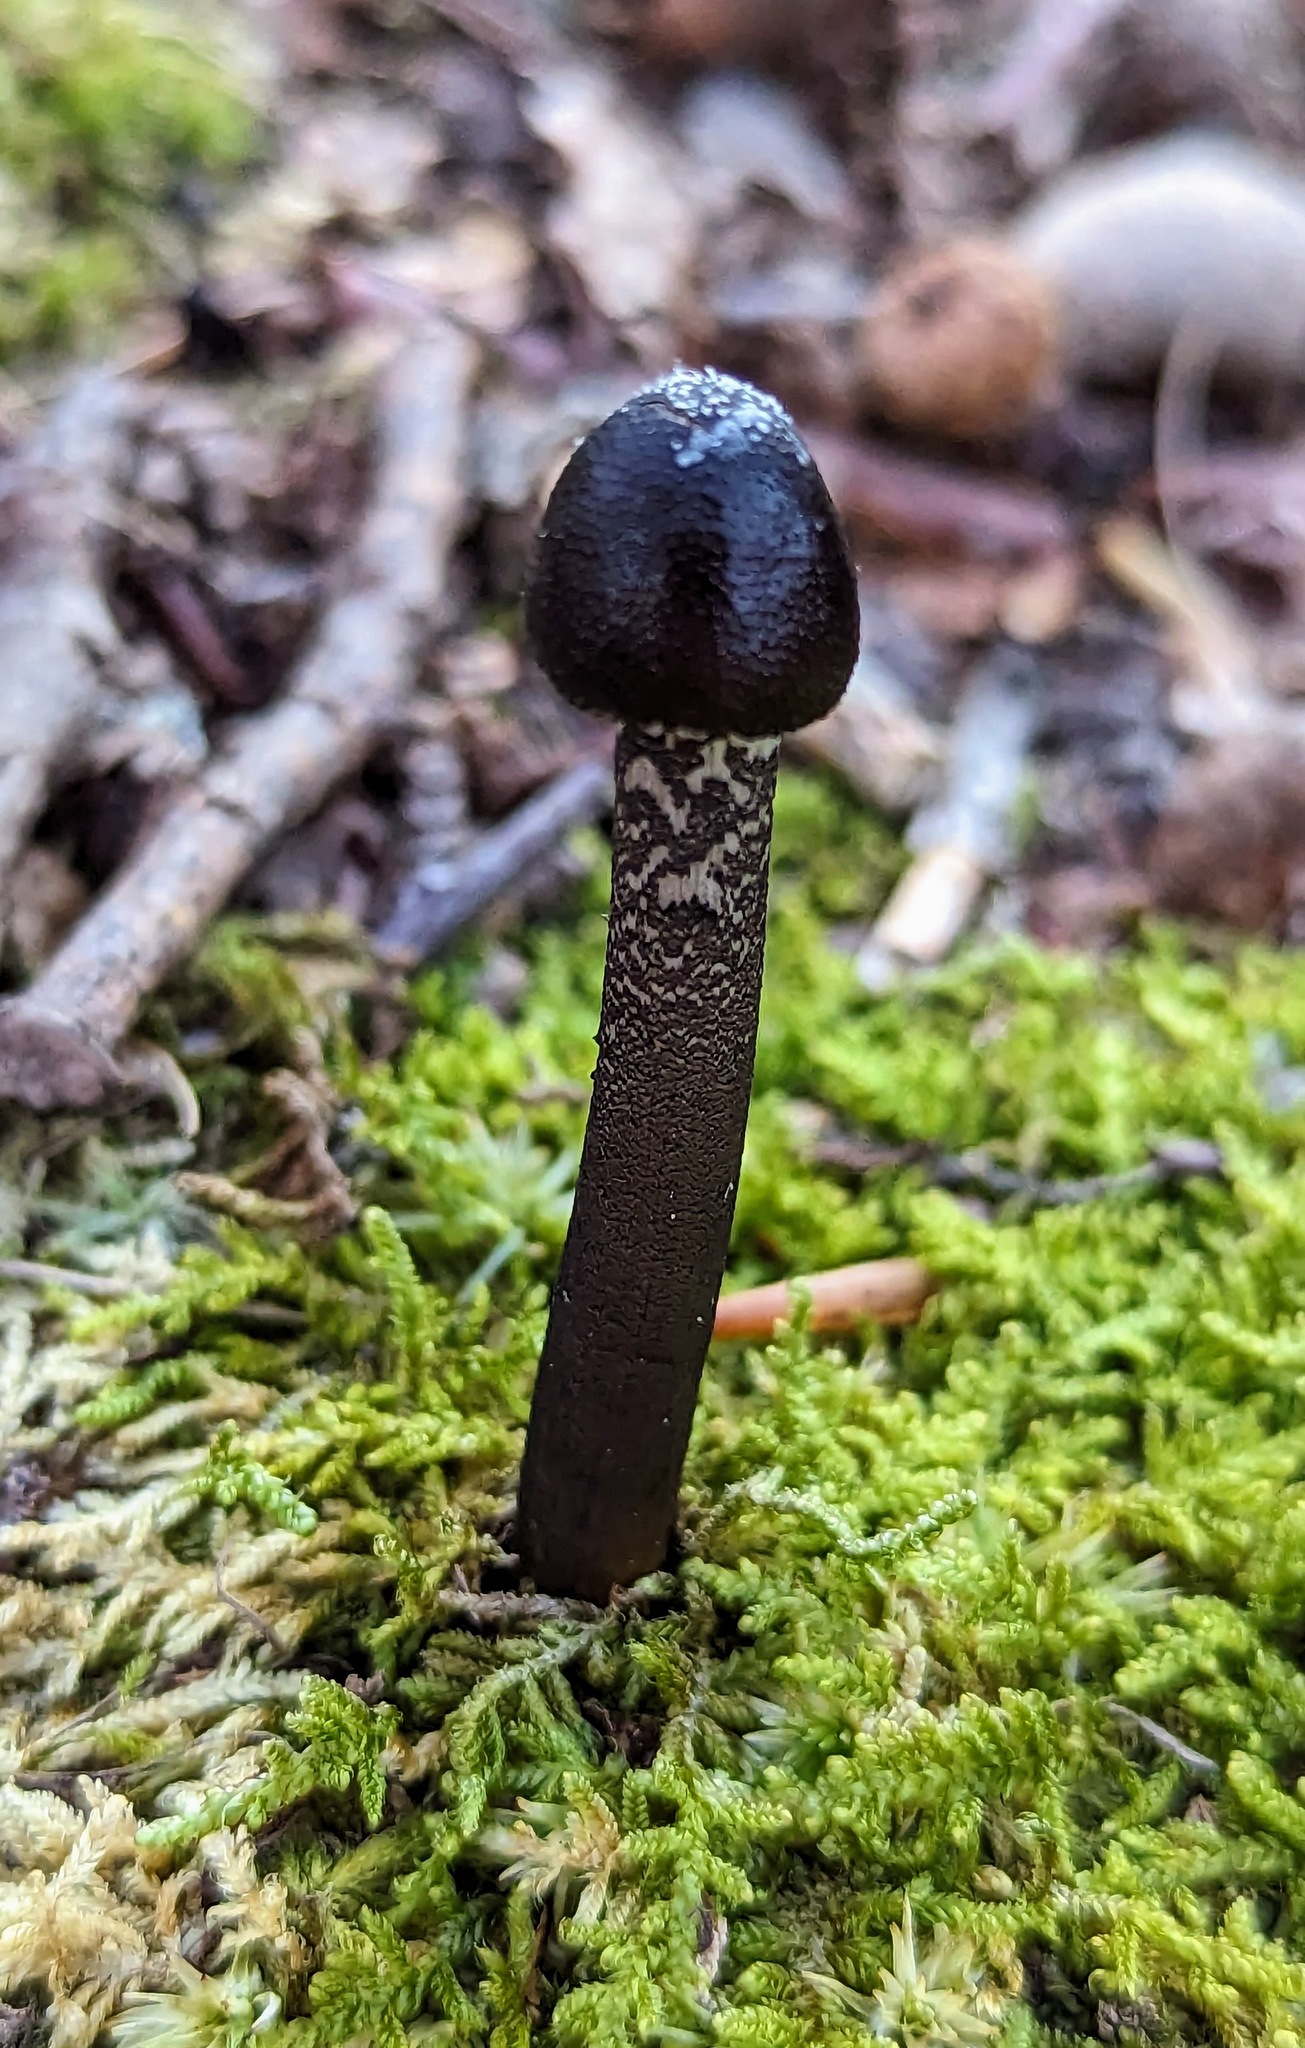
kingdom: Fungi
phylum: Ascomycota
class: Sordariomycetes
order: Hypocreales
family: Ophiocordycipitaceae
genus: Tolypocladium
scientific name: Tolypocladium longisegmentatum
